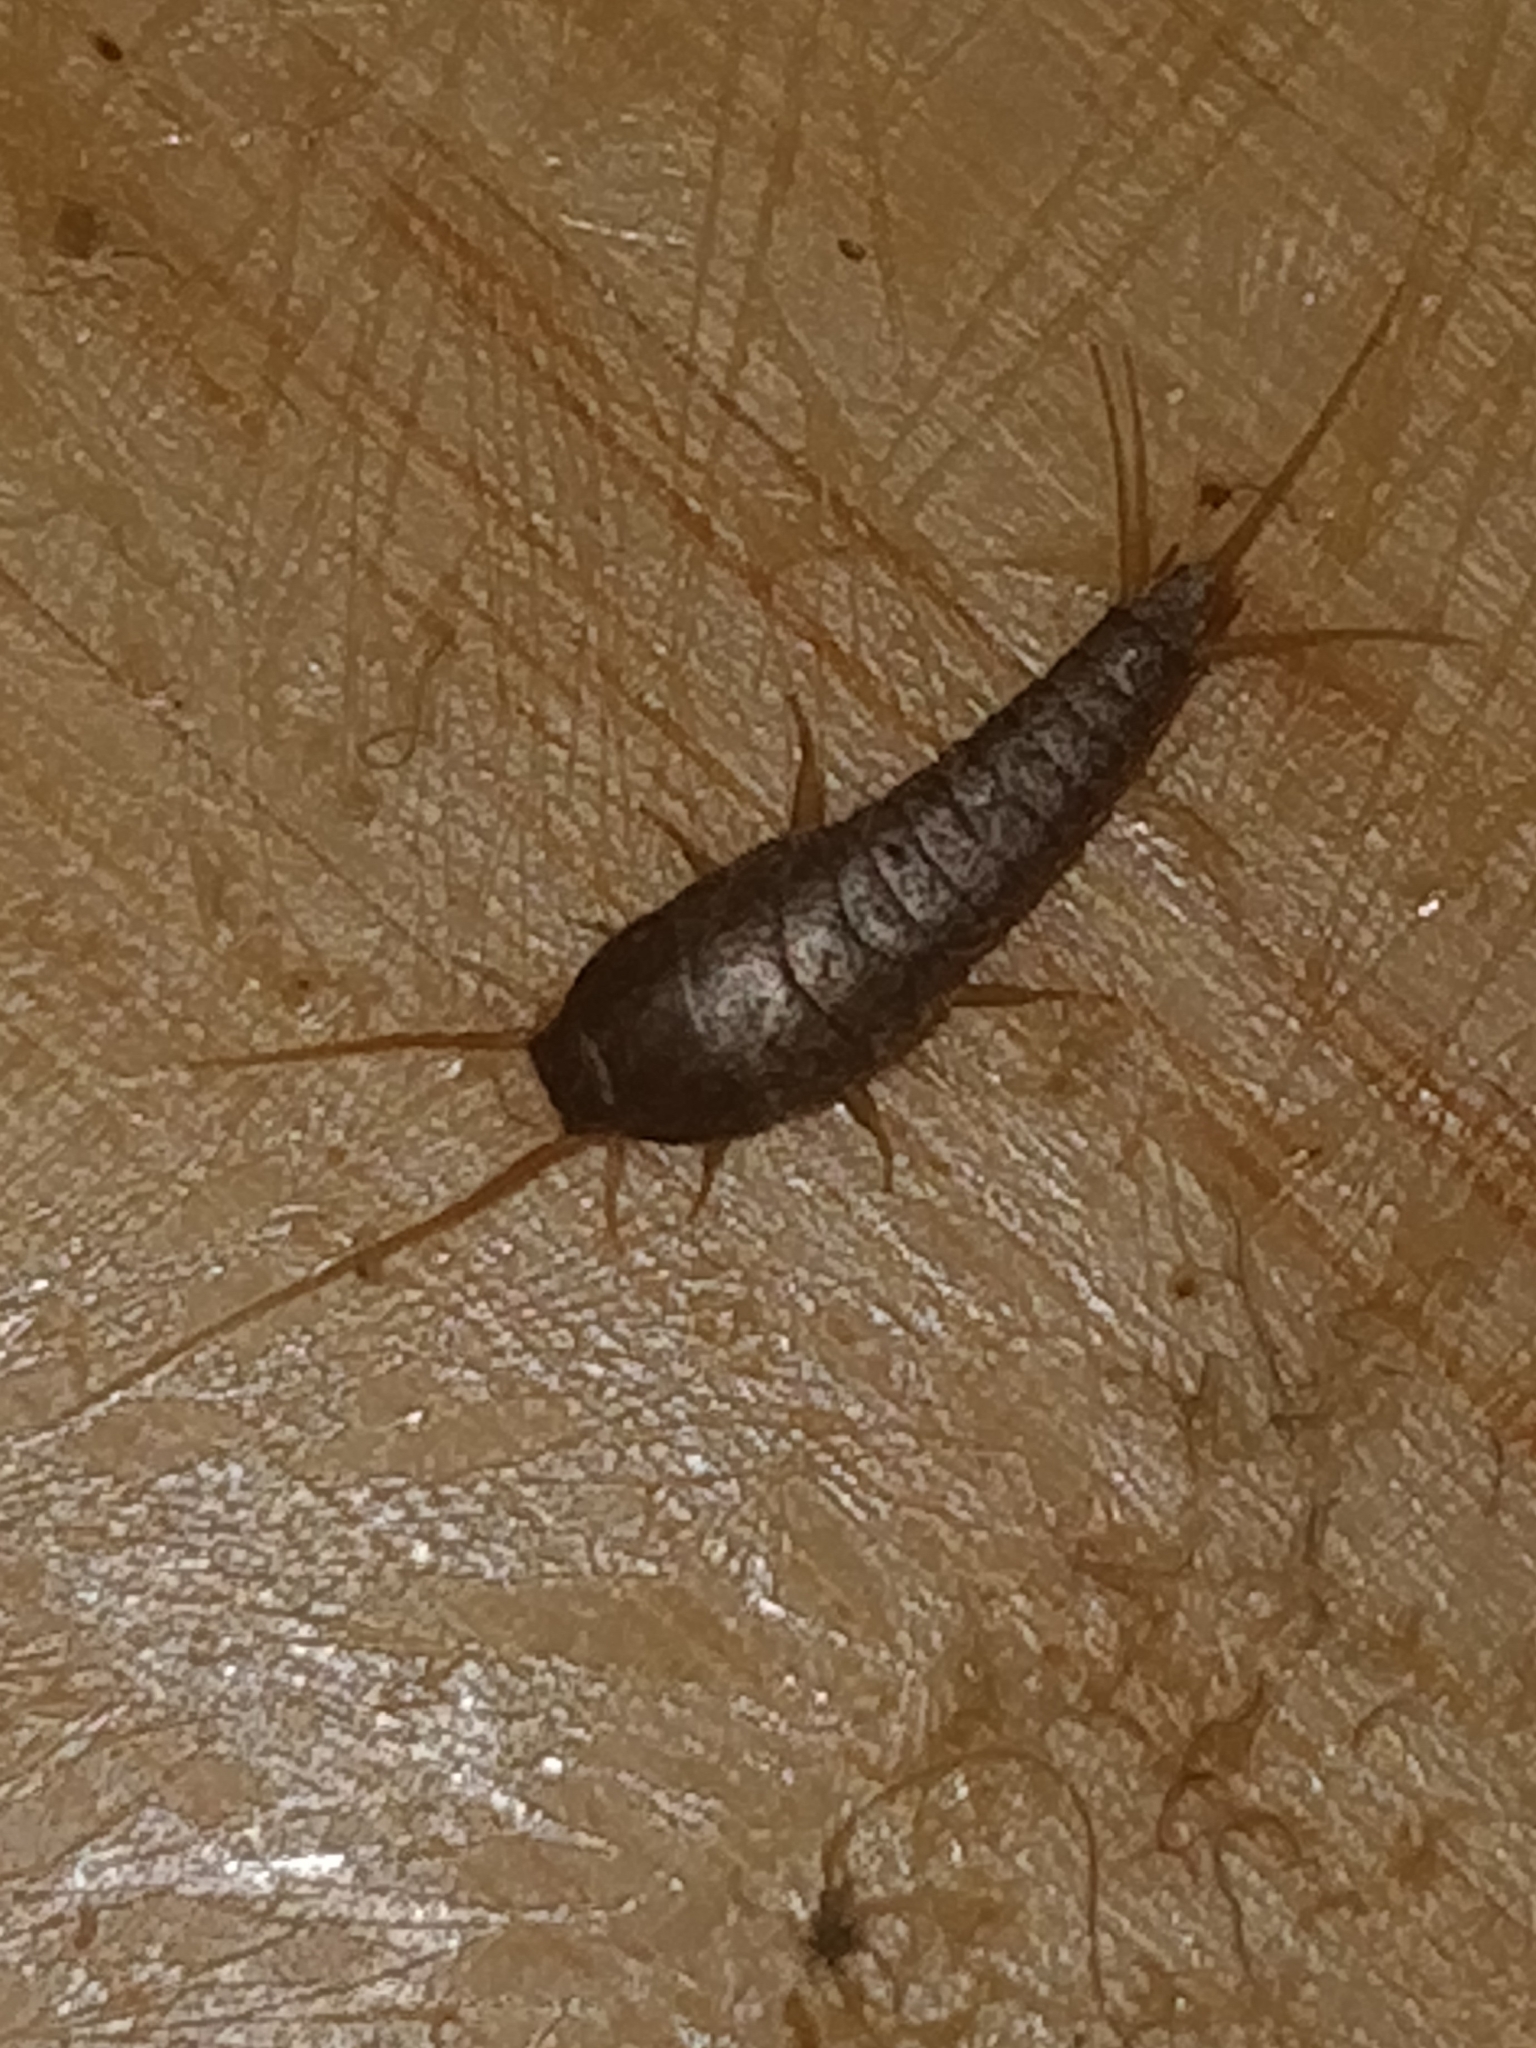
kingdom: Animalia
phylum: Arthropoda
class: Insecta
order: Zygentoma
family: Lepismatidae
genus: Lepisma
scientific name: Lepisma saccharinum
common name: Silverfish
